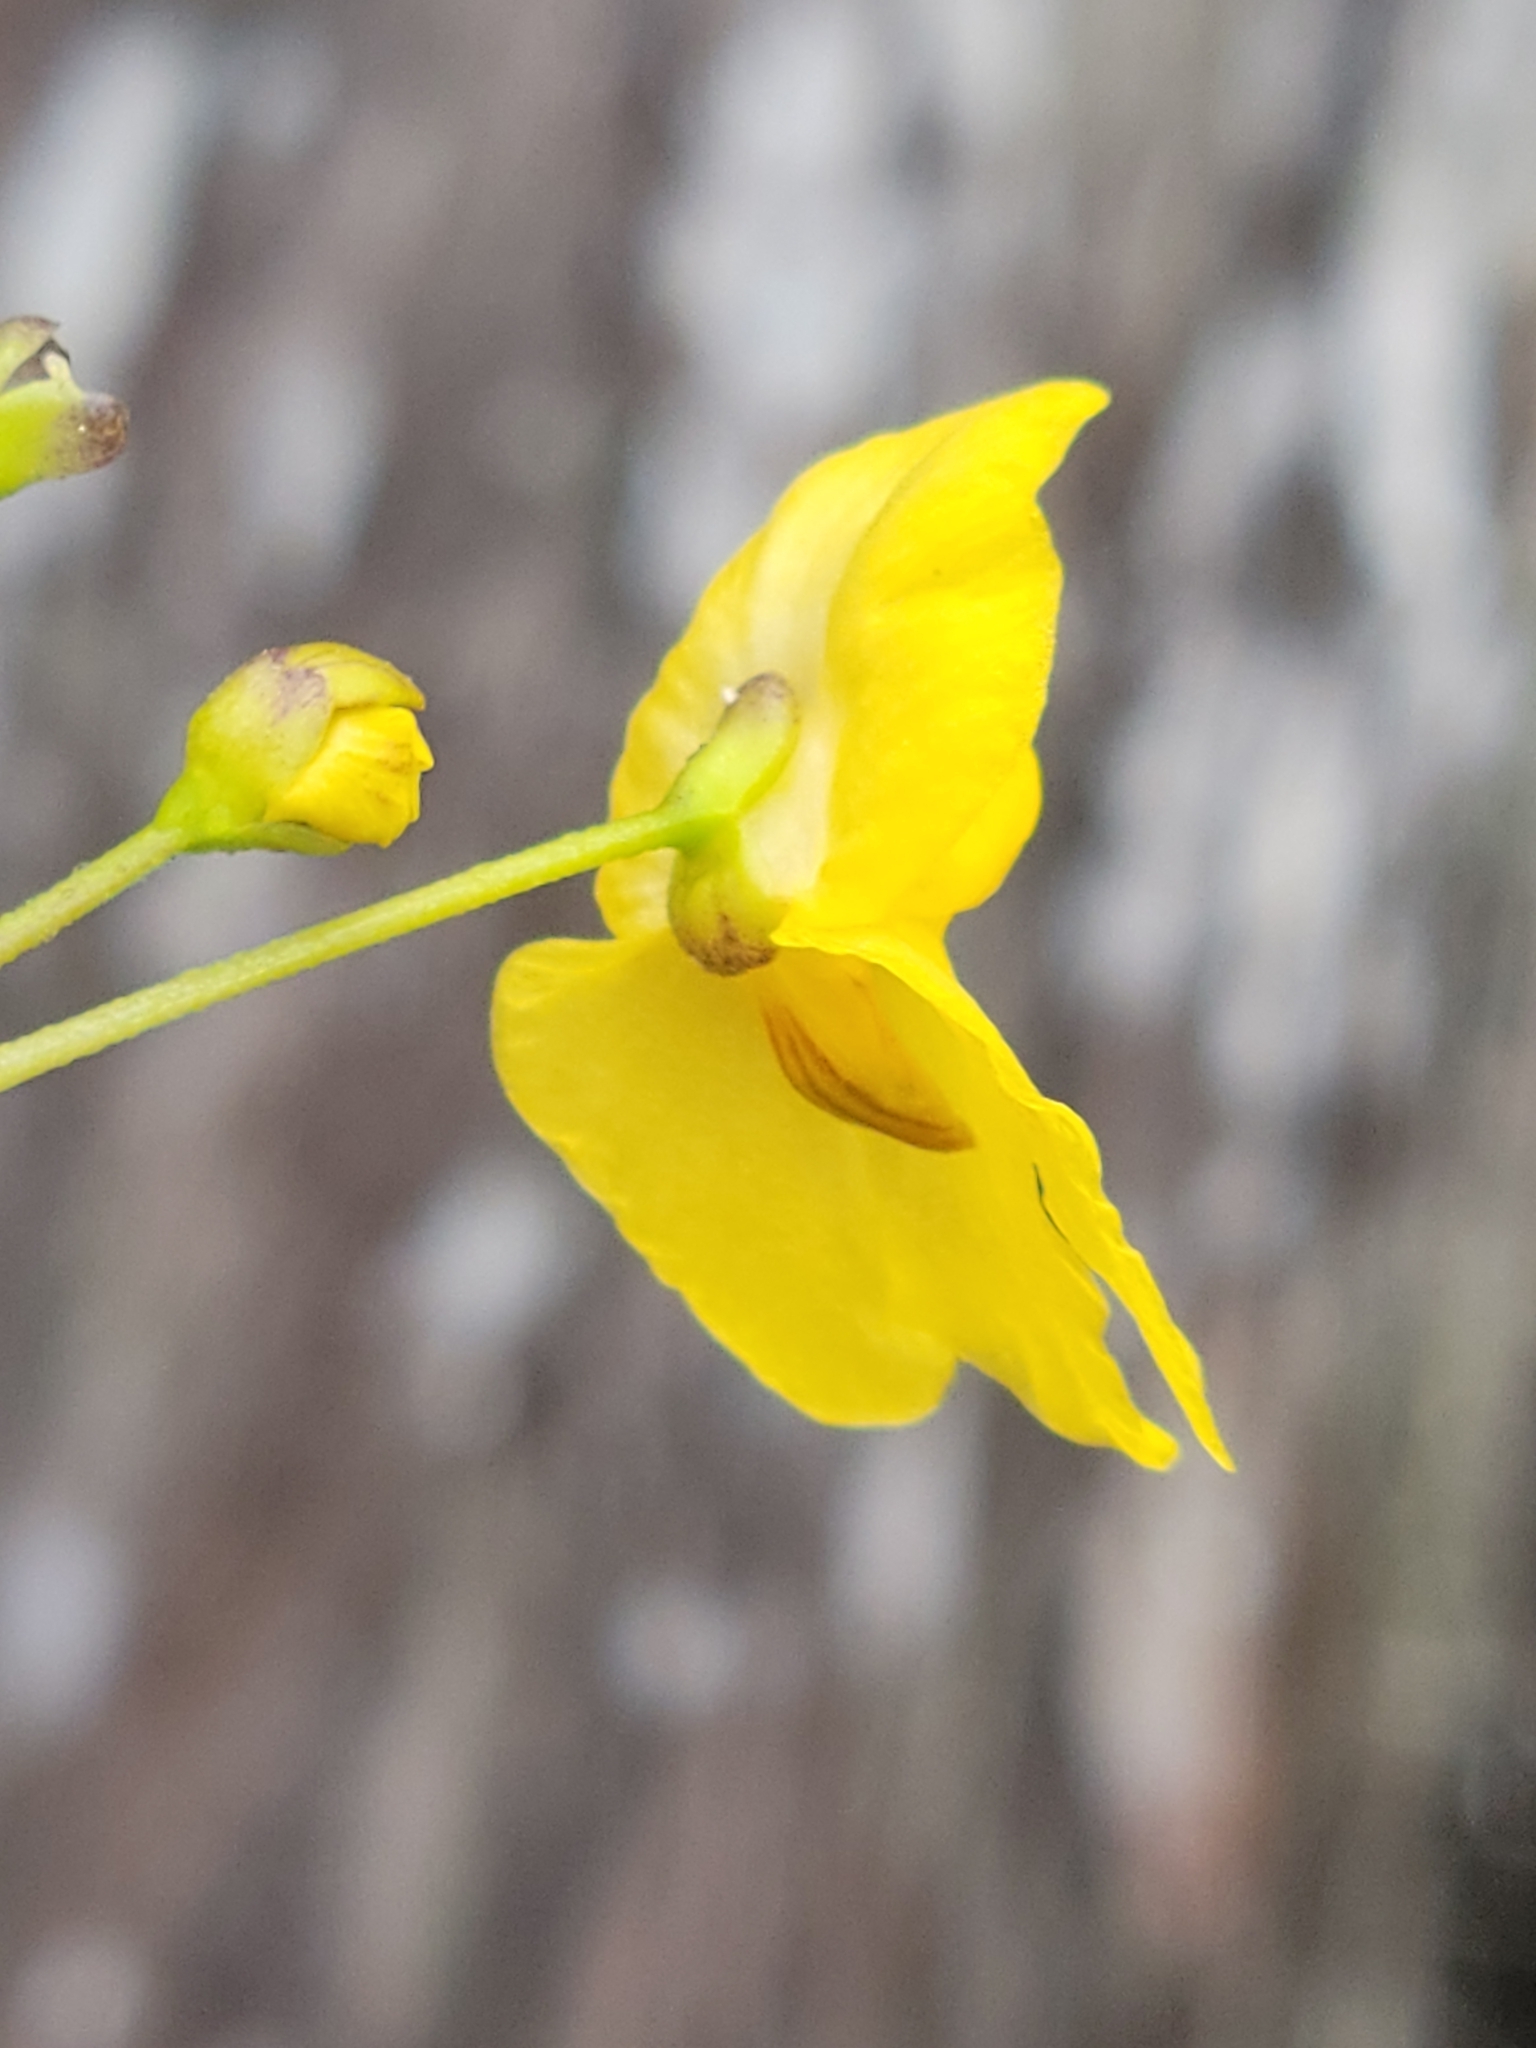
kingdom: Plantae
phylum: Tracheophyta
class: Magnoliopsida
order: Lamiales
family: Lentibulariaceae
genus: Utricularia
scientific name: Utricularia inflata
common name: Floating bladderwort
